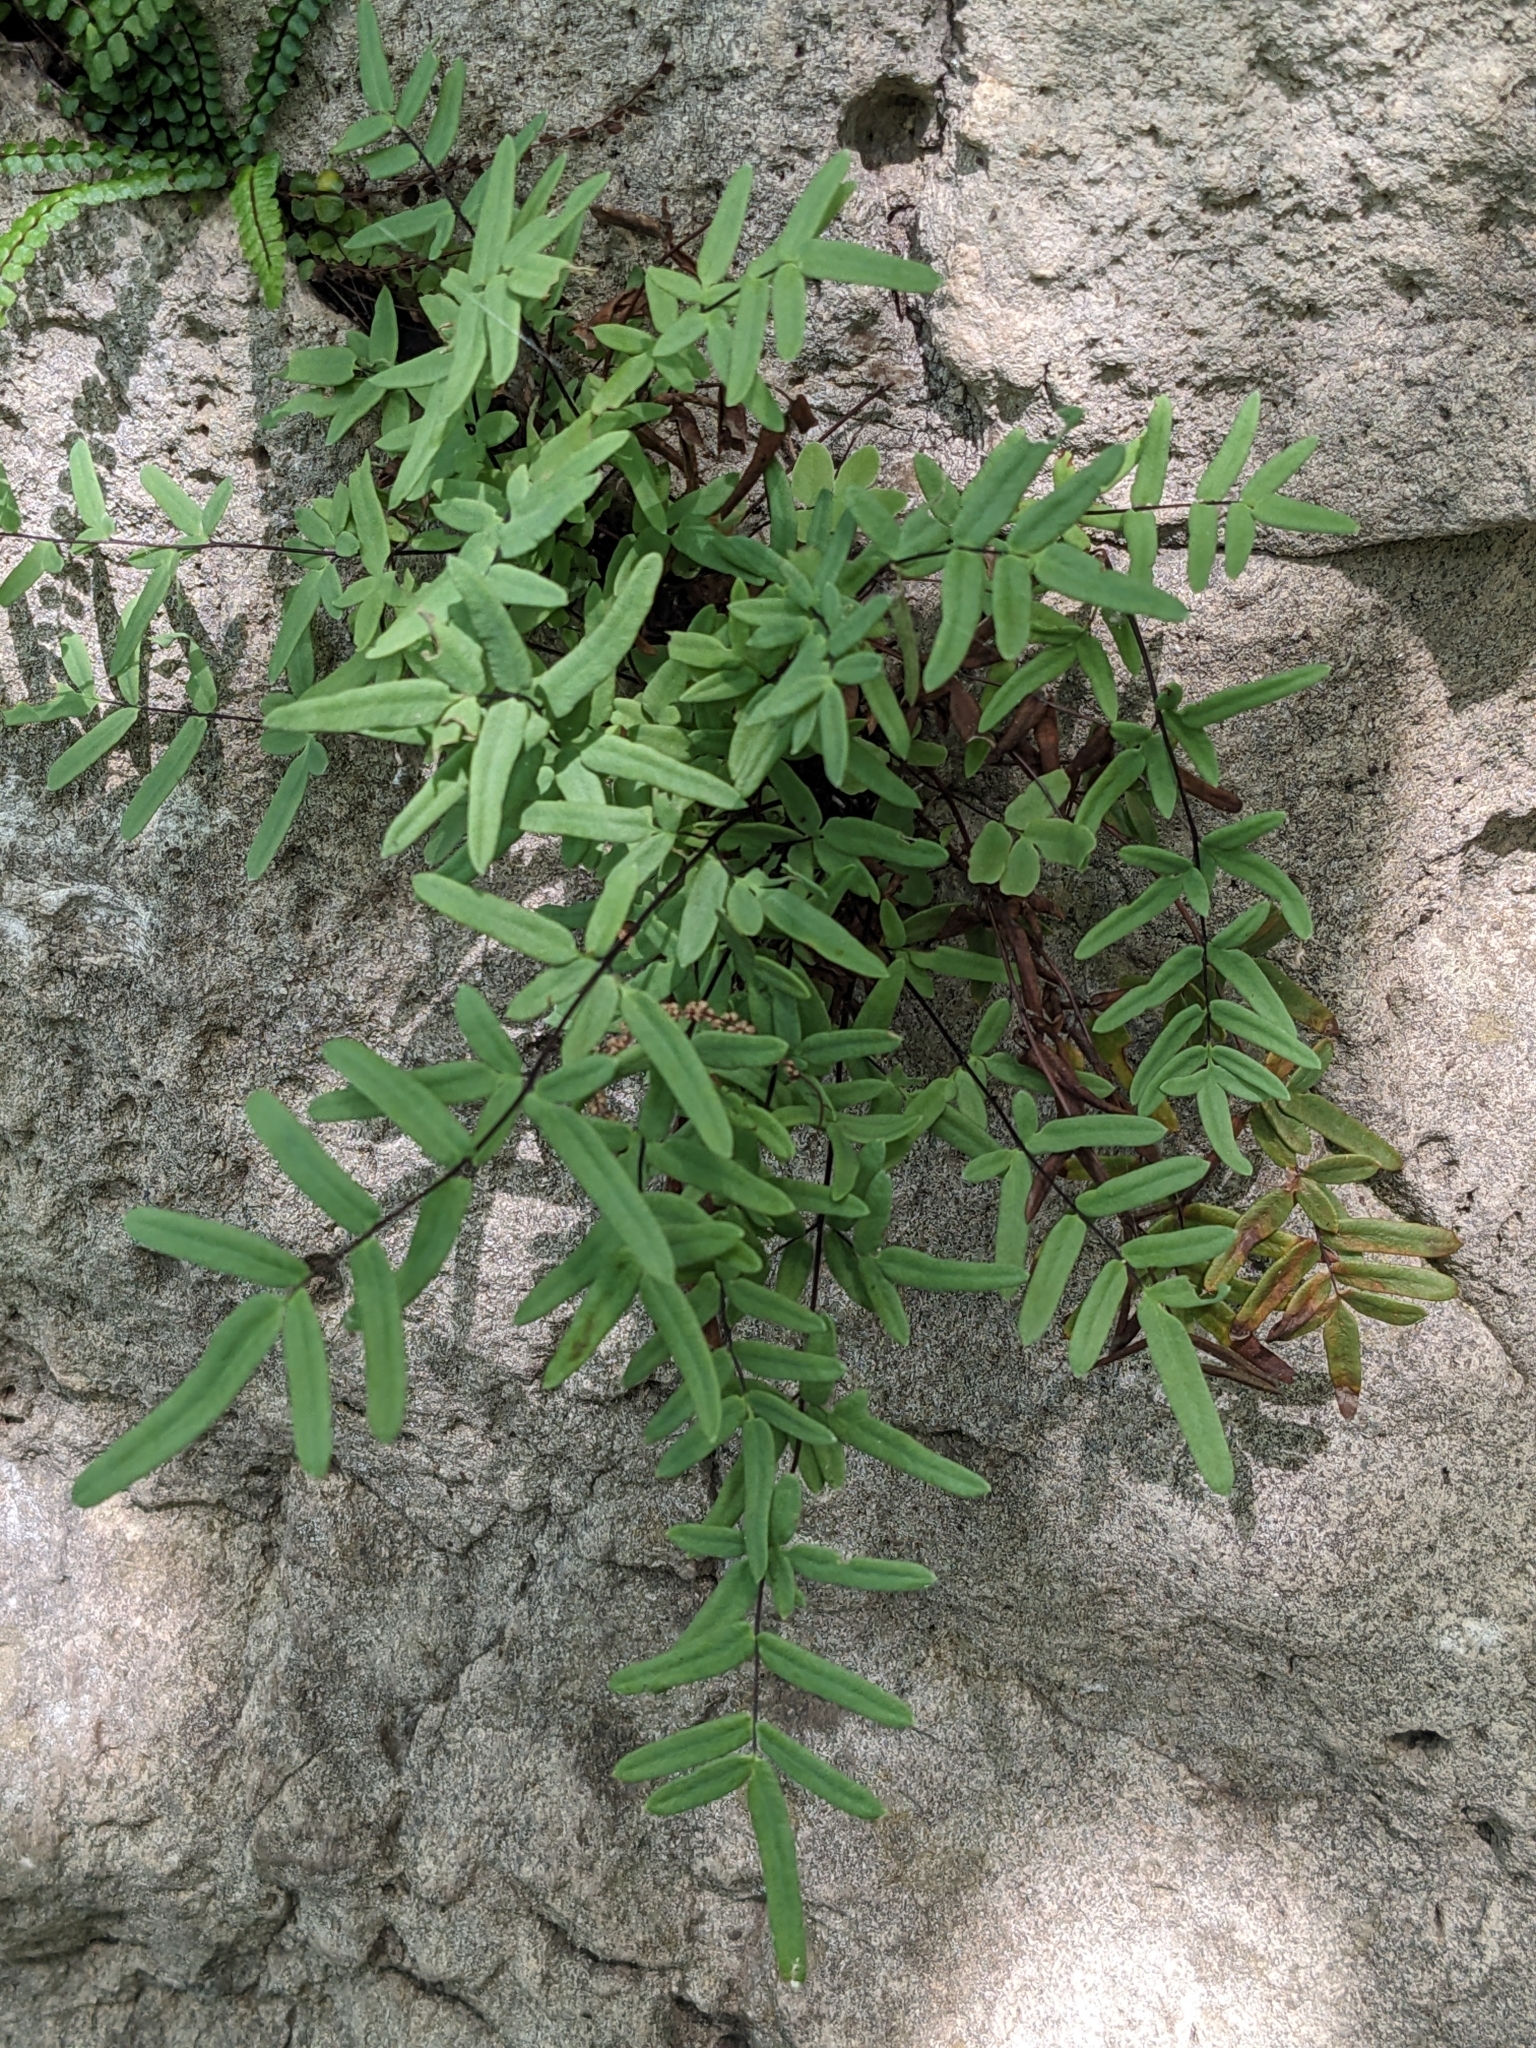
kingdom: Plantae
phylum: Tracheophyta
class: Polypodiopsida
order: Polypodiales
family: Pteridaceae
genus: Pellaea
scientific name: Pellaea glabella
